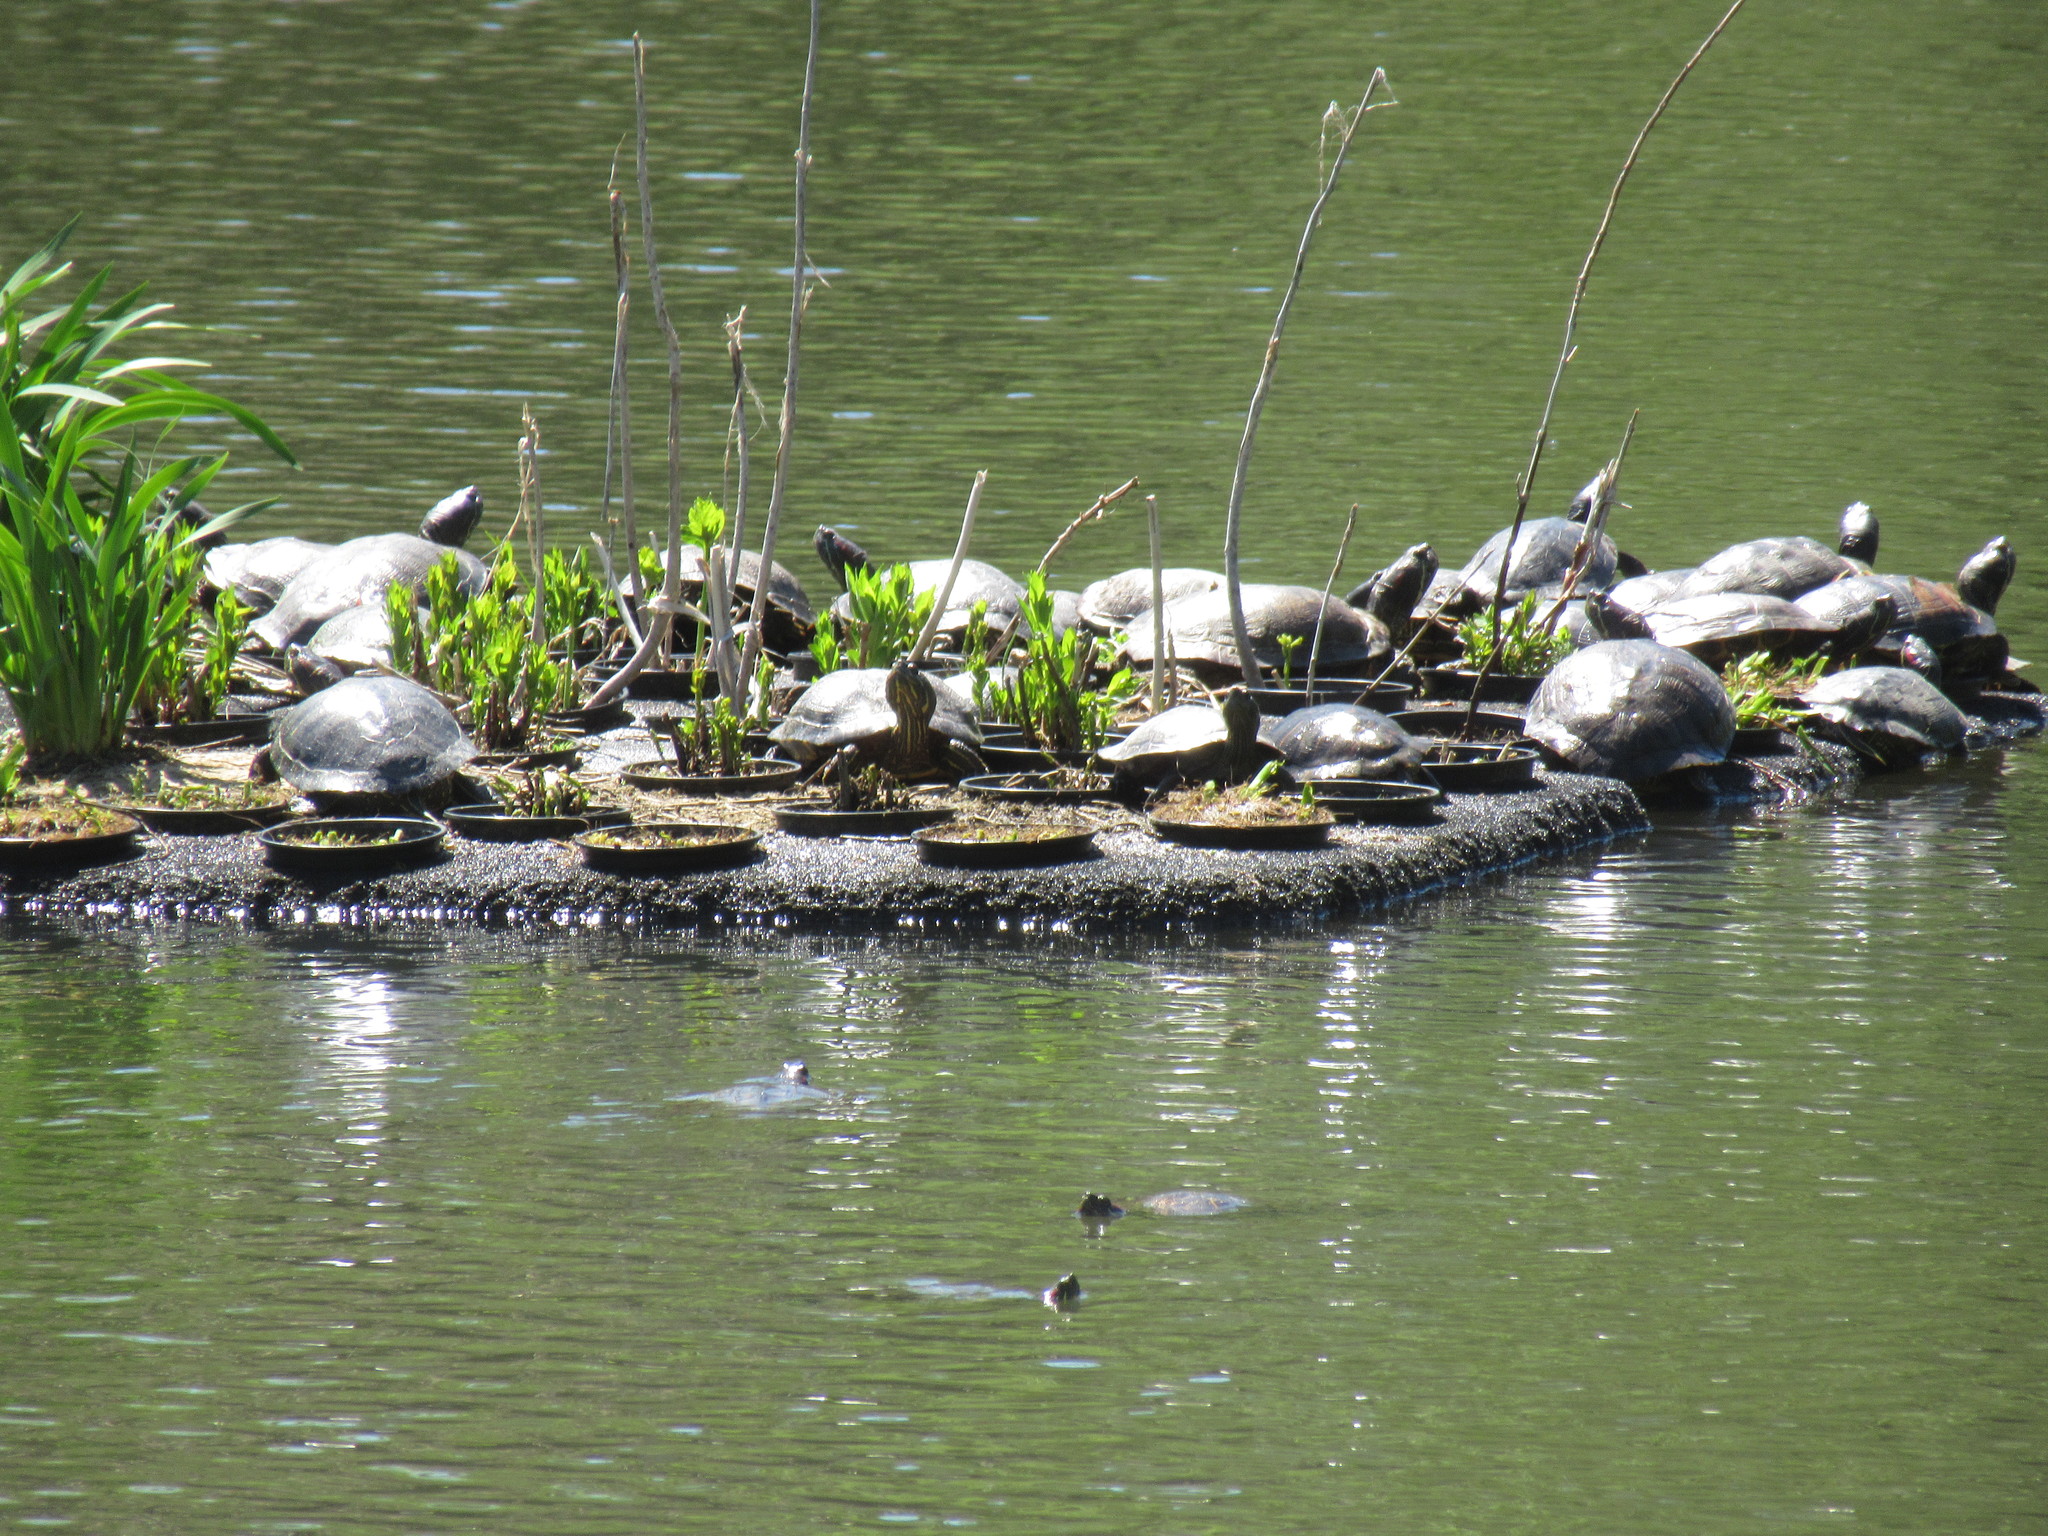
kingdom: Animalia
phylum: Chordata
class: Testudines
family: Emydidae
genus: Trachemys
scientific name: Trachemys scripta
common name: Slider
